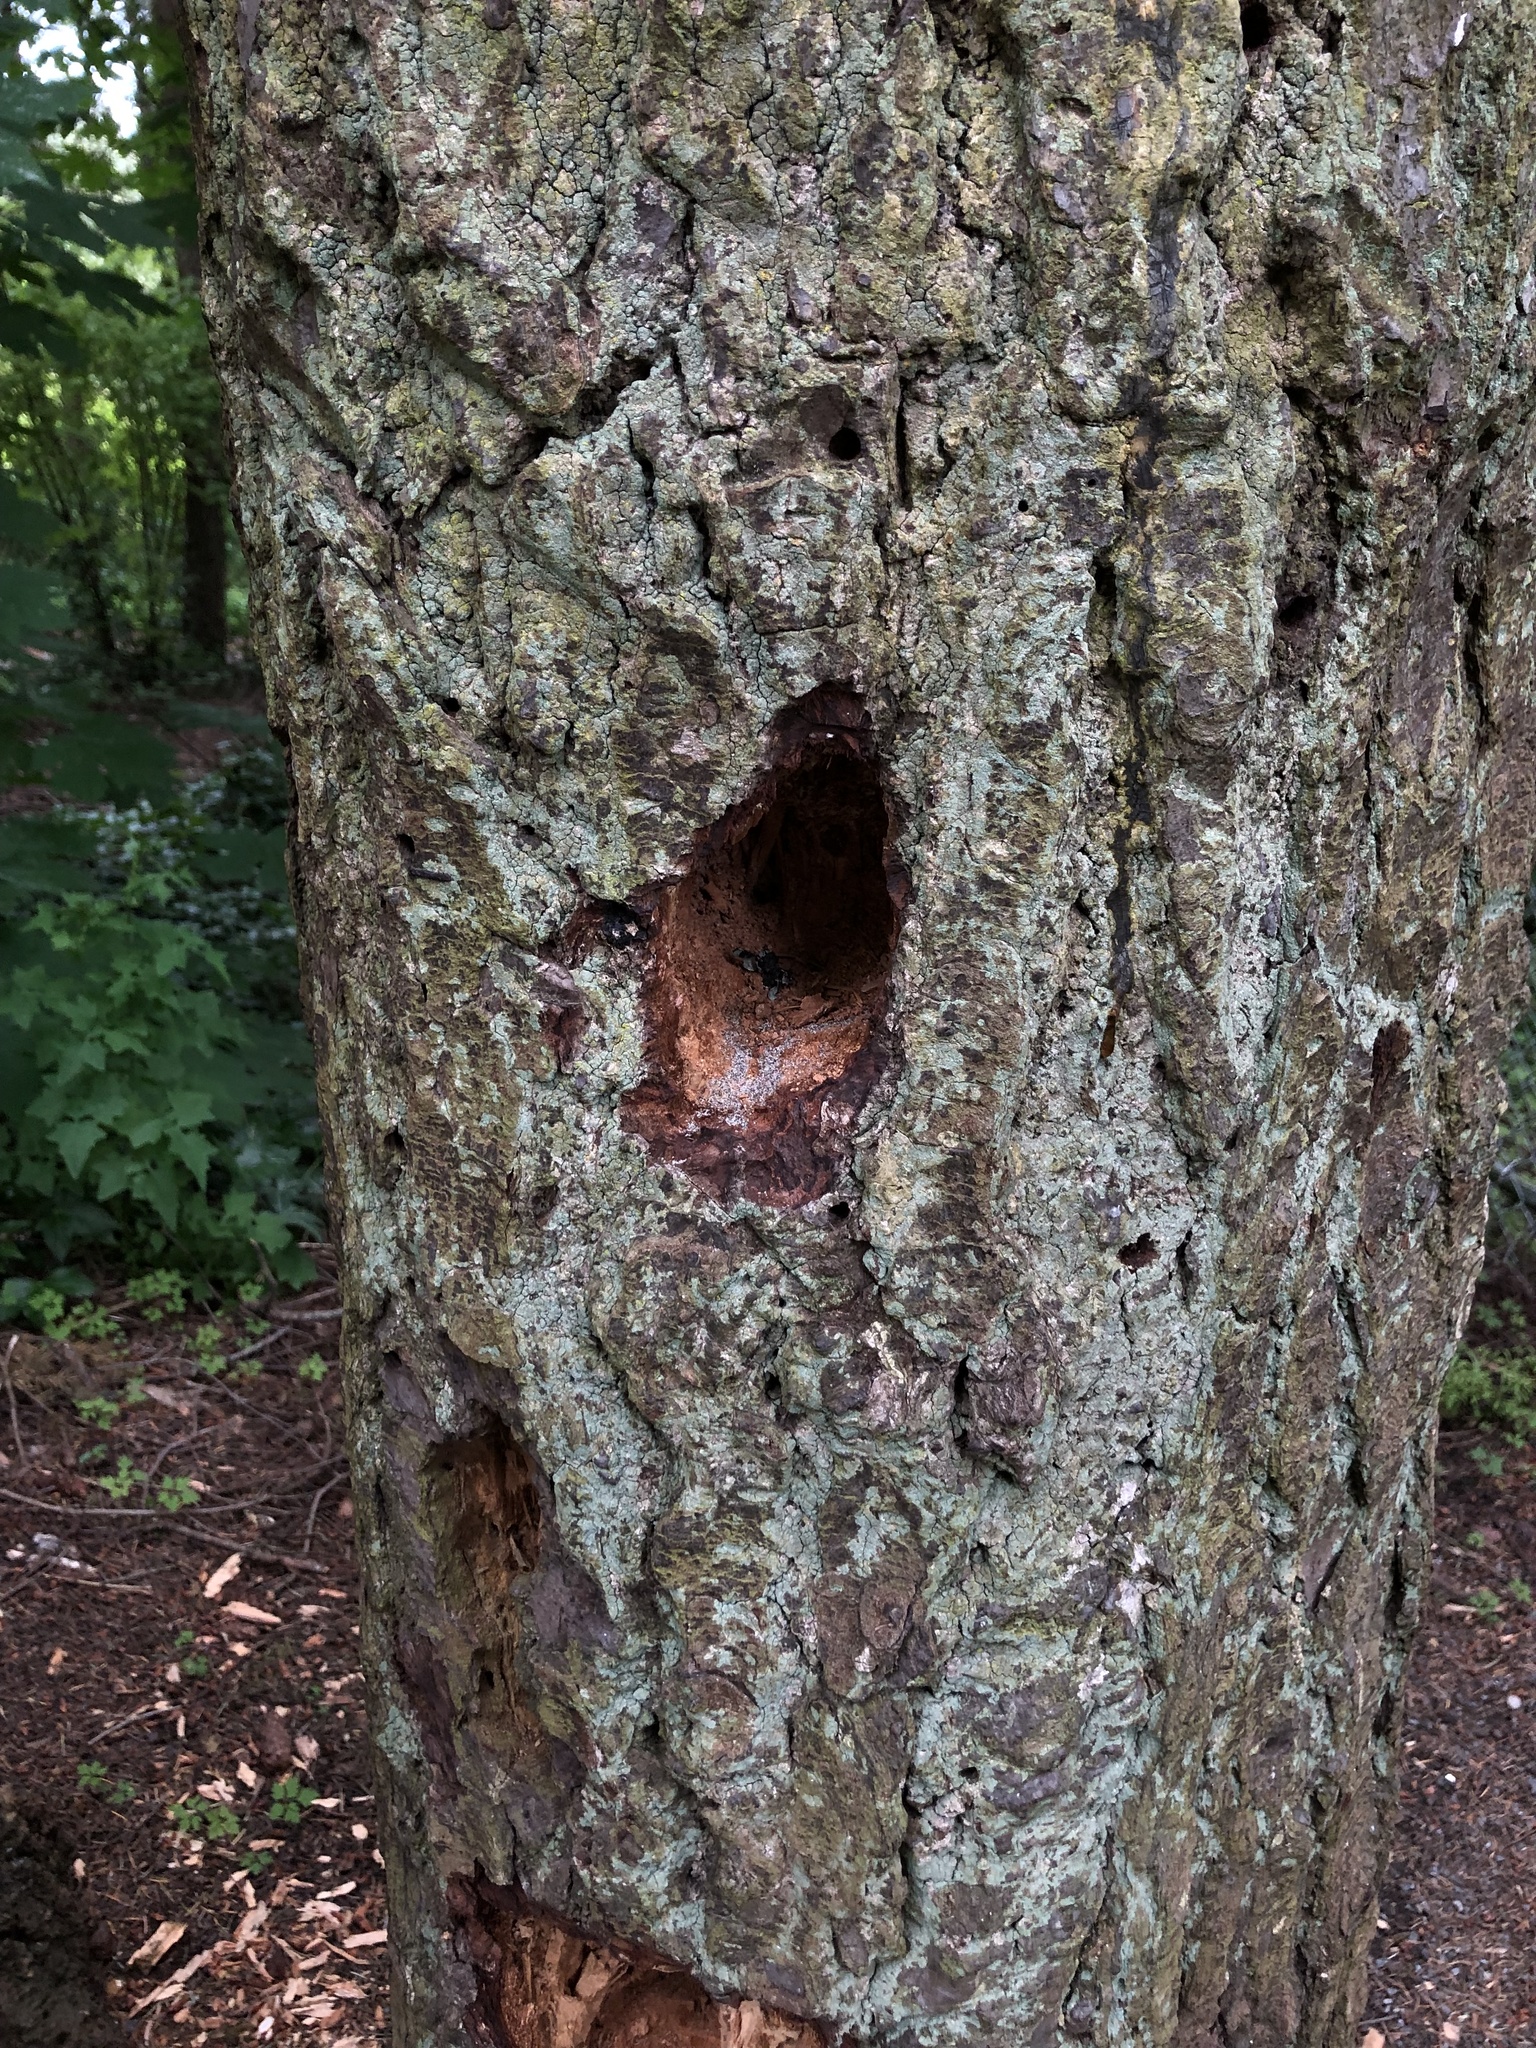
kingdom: Animalia
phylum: Chordata
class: Aves
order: Piciformes
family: Picidae
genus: Dryocopus
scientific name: Dryocopus pileatus
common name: Pileated woodpecker
